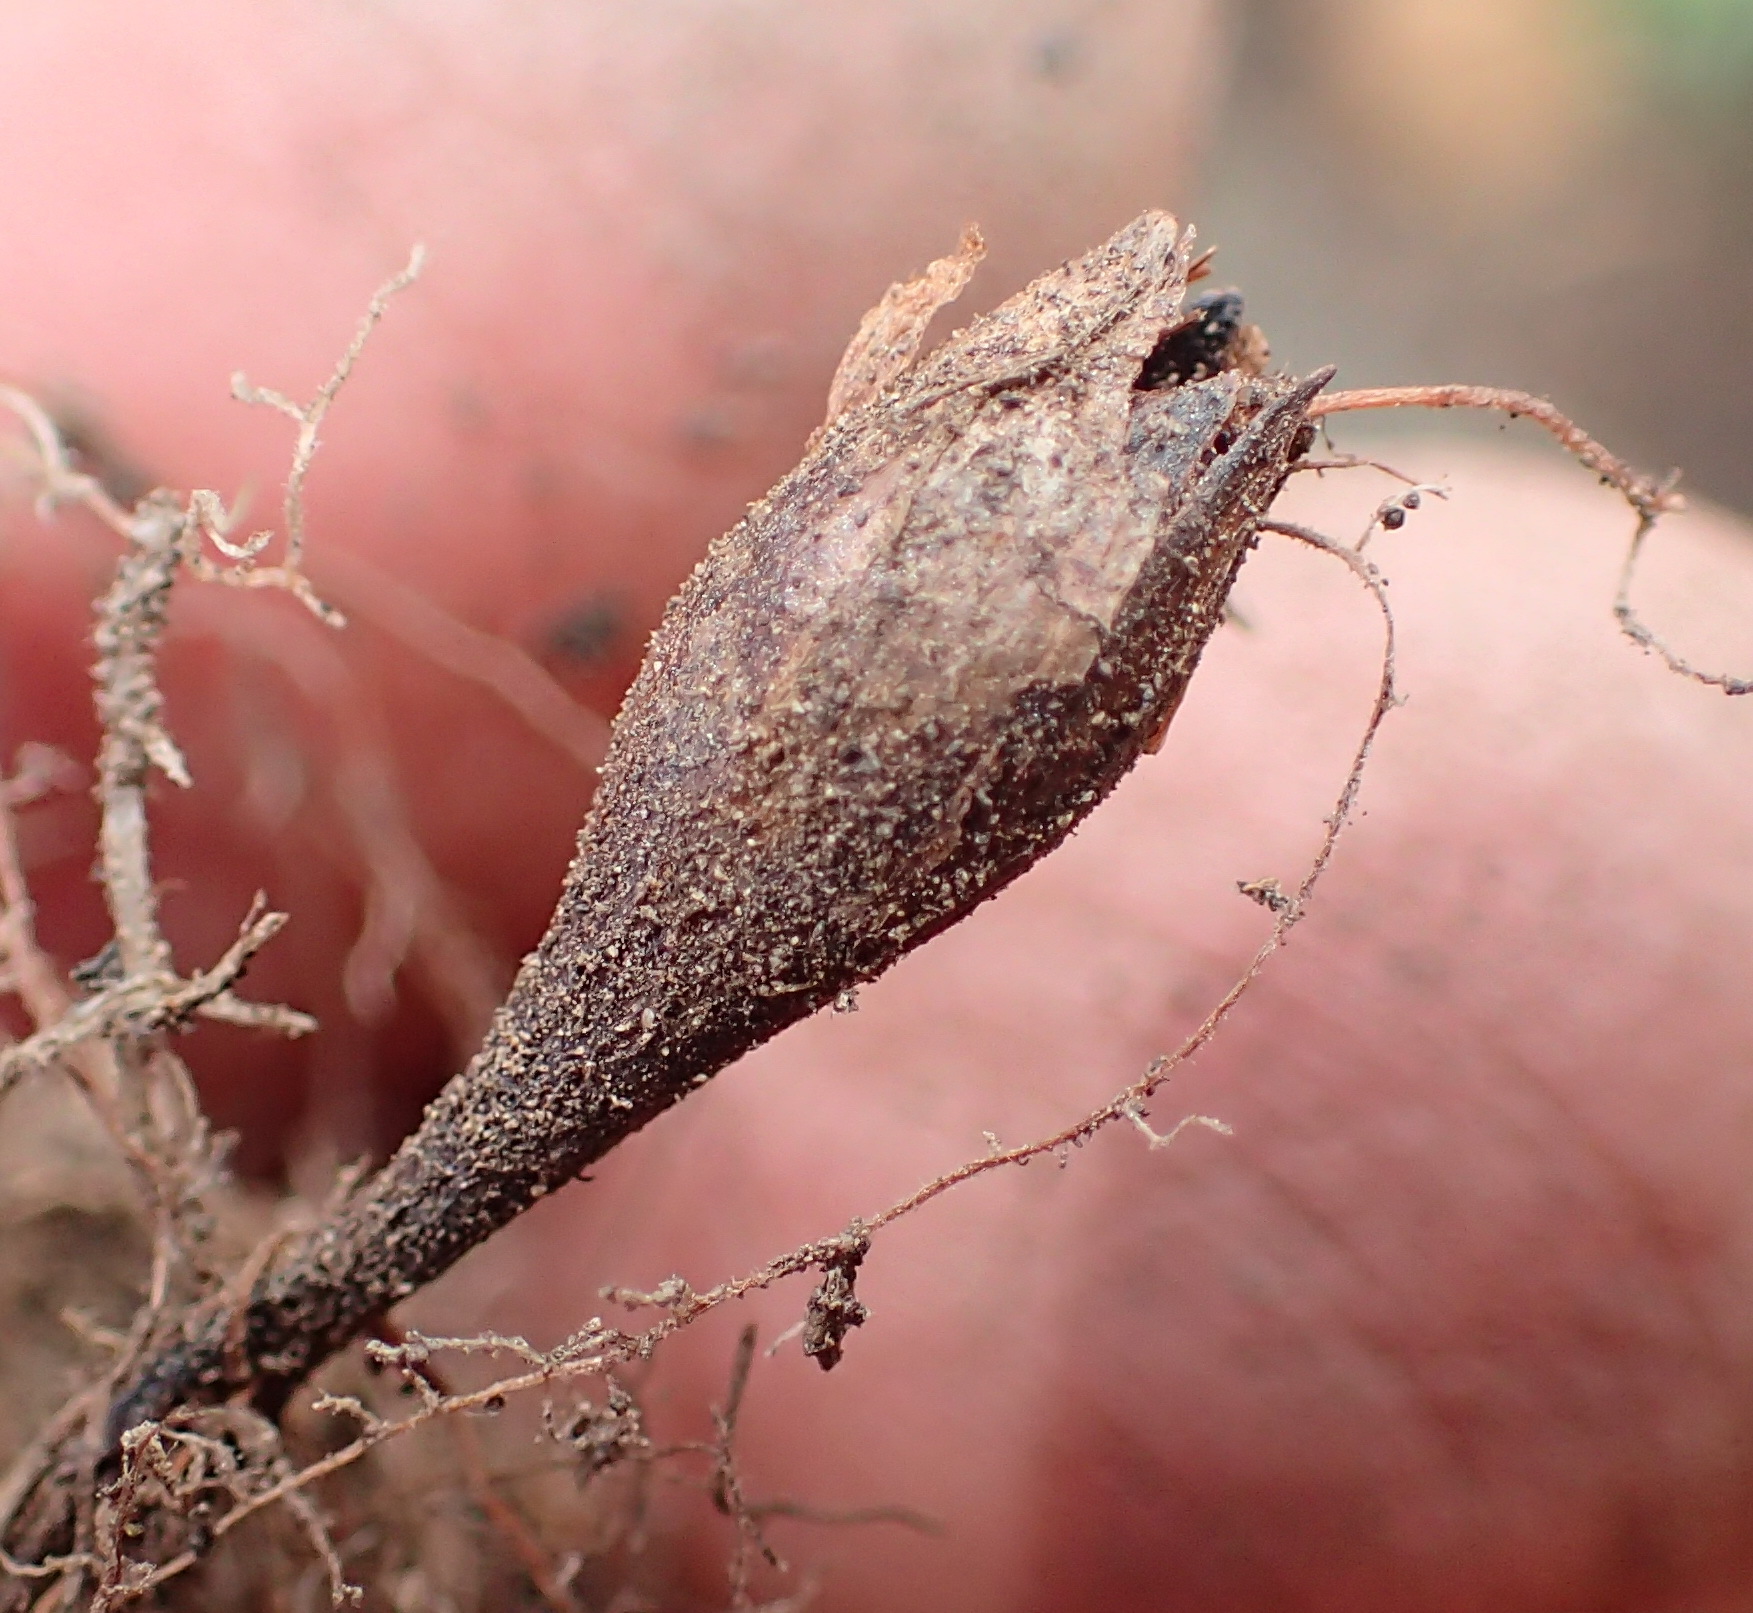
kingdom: Plantae
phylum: Tracheophyta
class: Magnoliopsida
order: Oxalidales
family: Oxalidaceae
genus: Oxalis
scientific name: Oxalis algoensis
